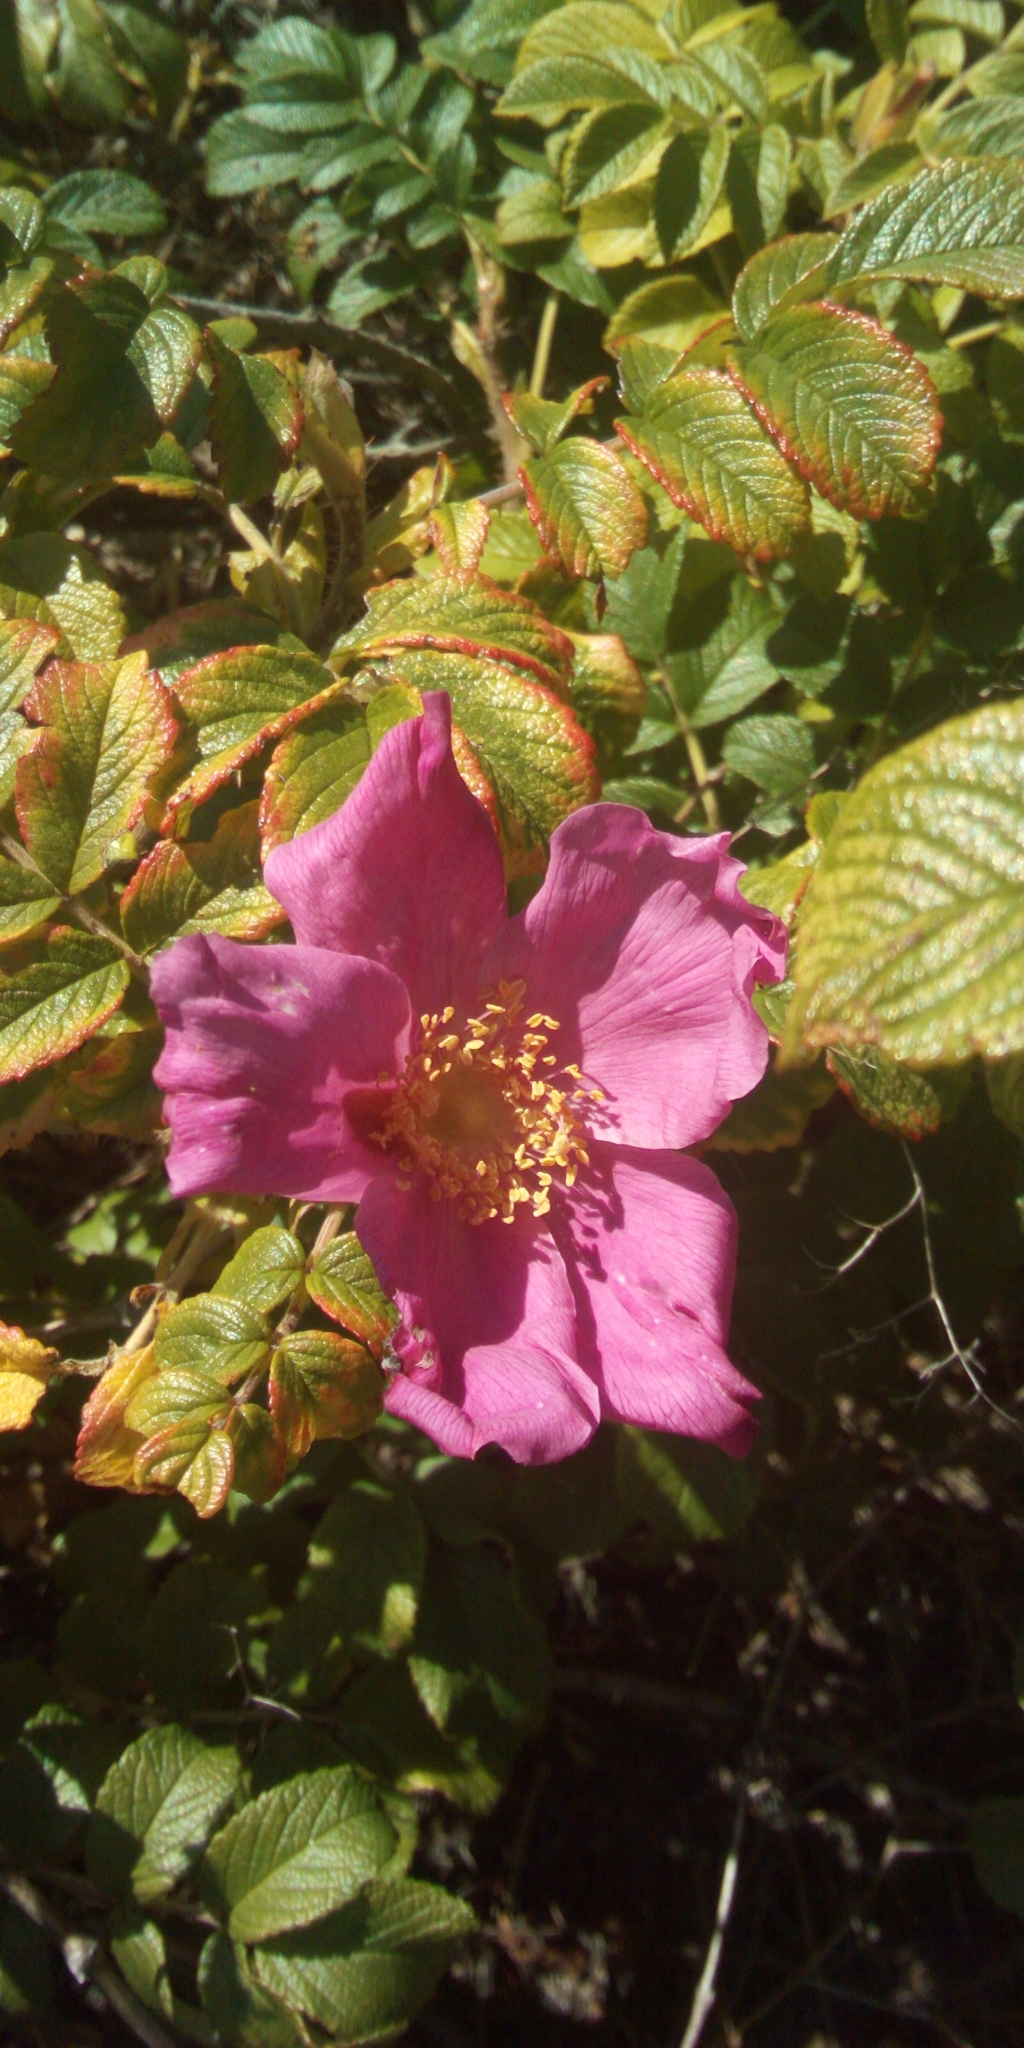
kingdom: Plantae
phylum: Tracheophyta
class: Magnoliopsida
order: Rosales
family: Rosaceae
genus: Rosa
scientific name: Rosa rugosa
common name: Japanese rose
